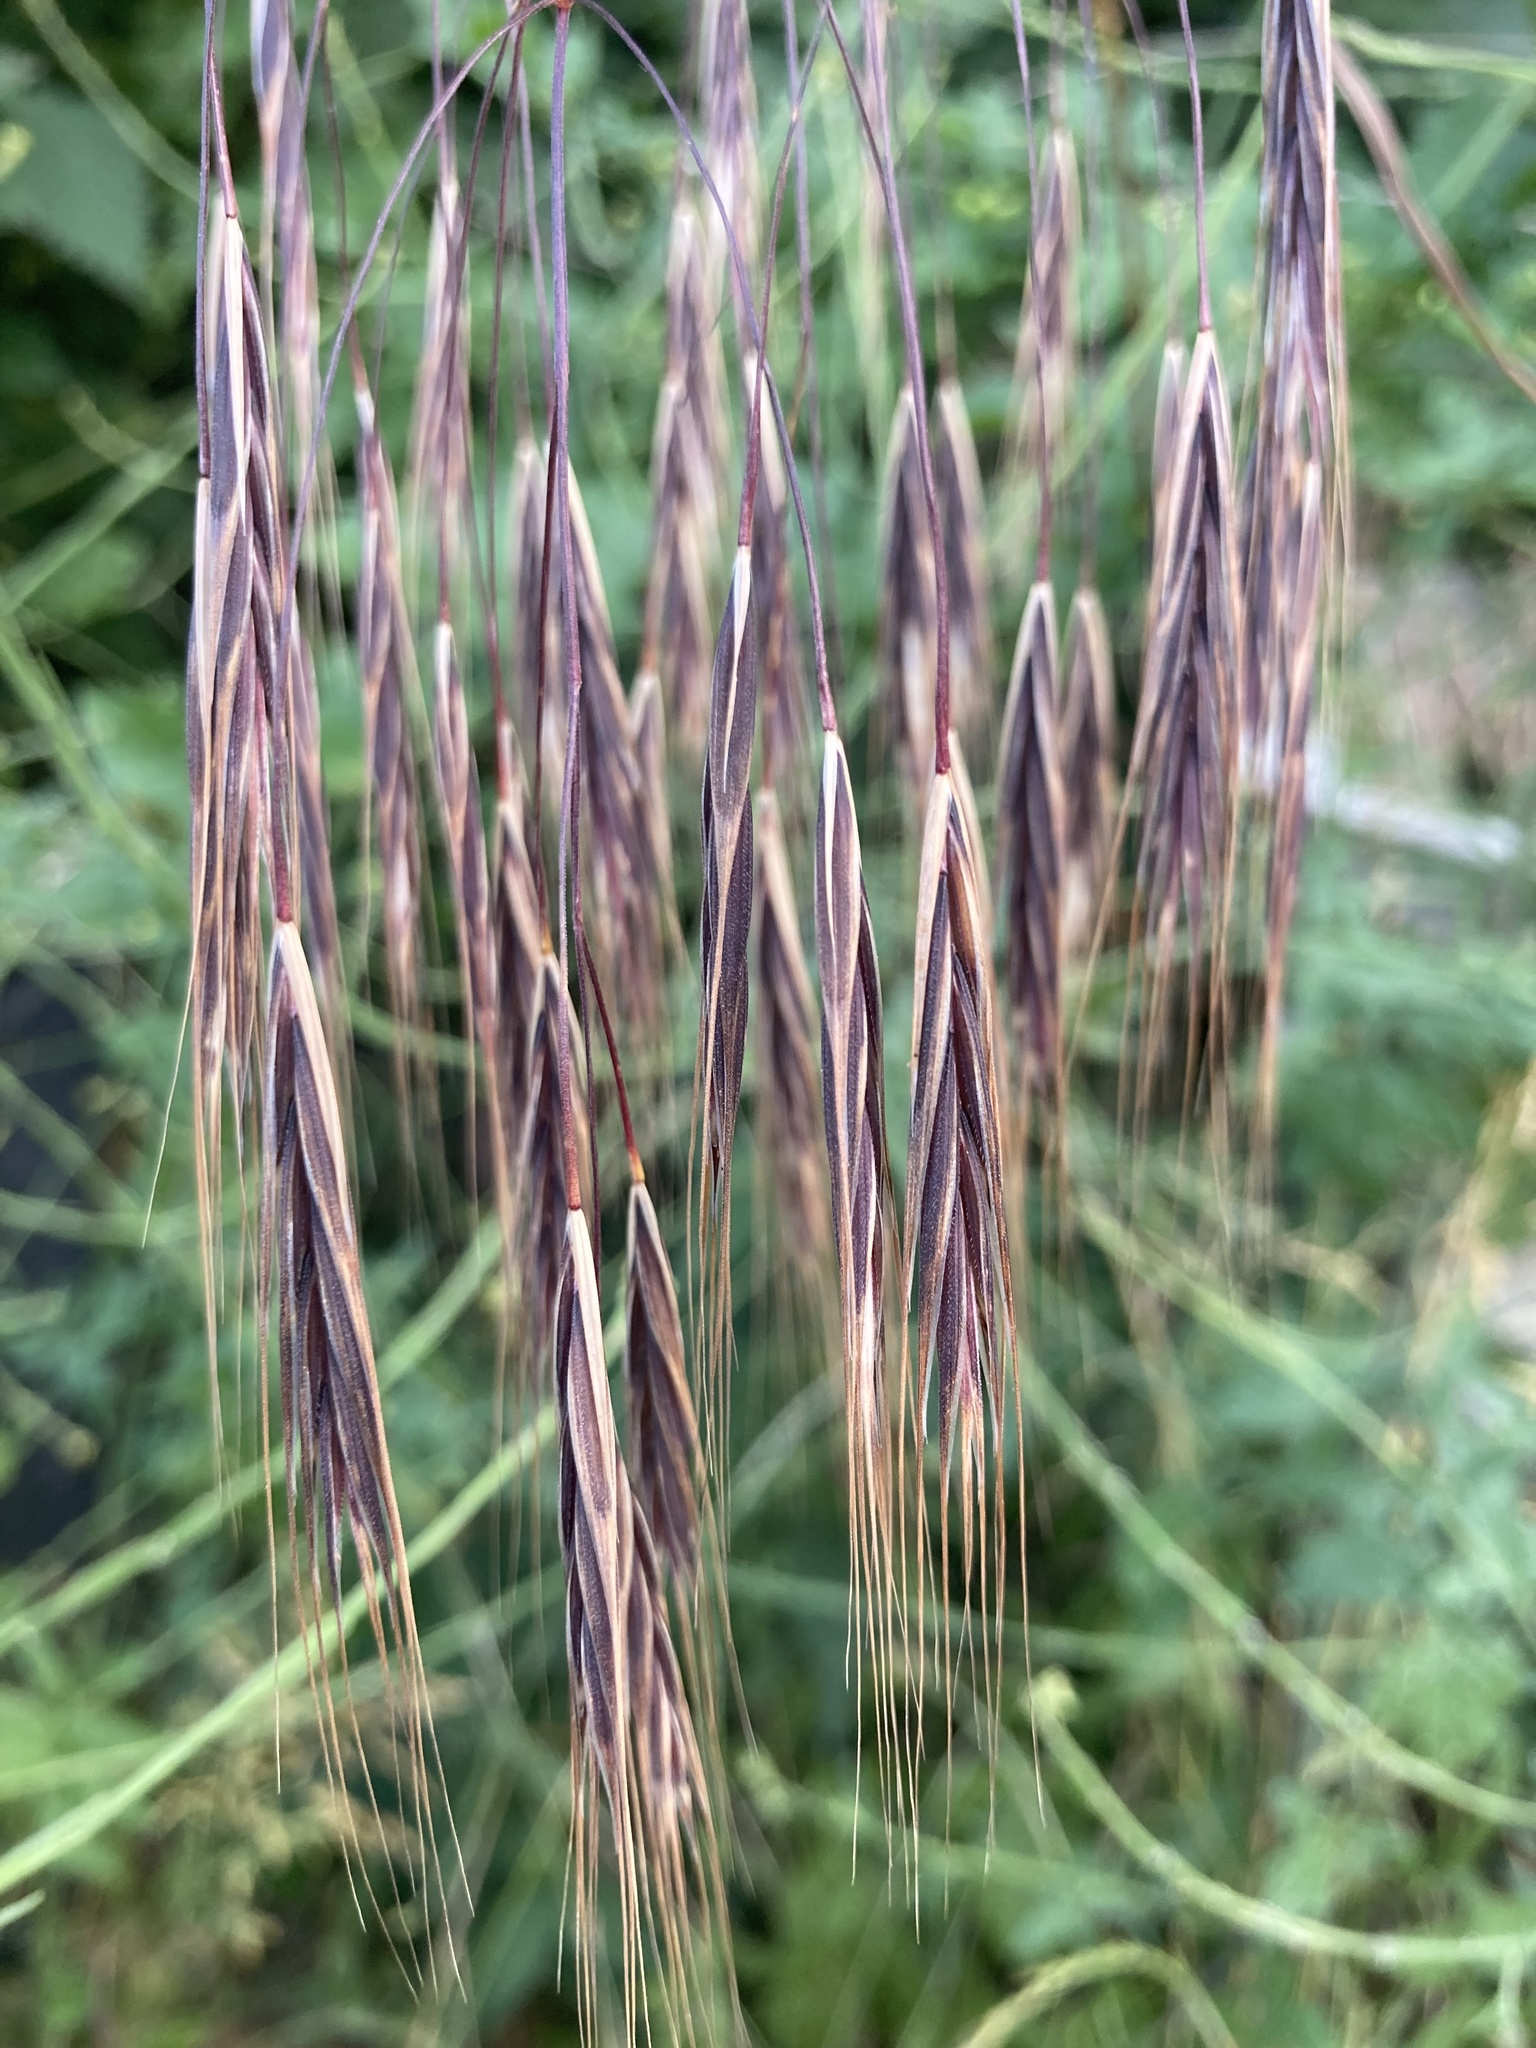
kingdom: Plantae
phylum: Tracheophyta
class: Liliopsida
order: Poales
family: Poaceae
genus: Bromus
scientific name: Bromus sterilis
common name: Poverty brome
